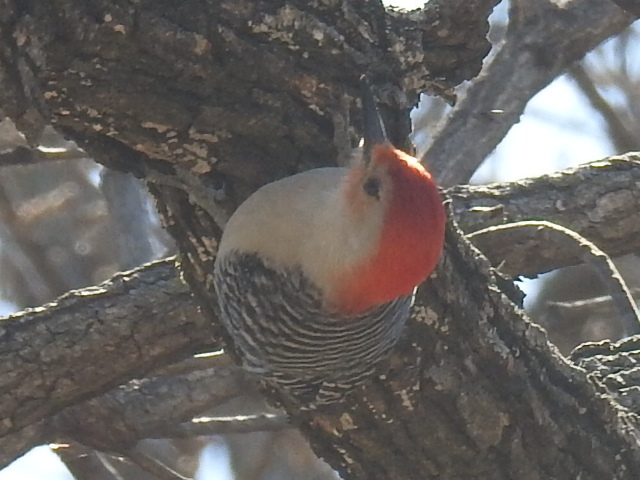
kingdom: Animalia
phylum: Chordata
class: Aves
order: Piciformes
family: Picidae
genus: Melanerpes
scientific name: Melanerpes carolinus
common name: Red-bellied woodpecker
